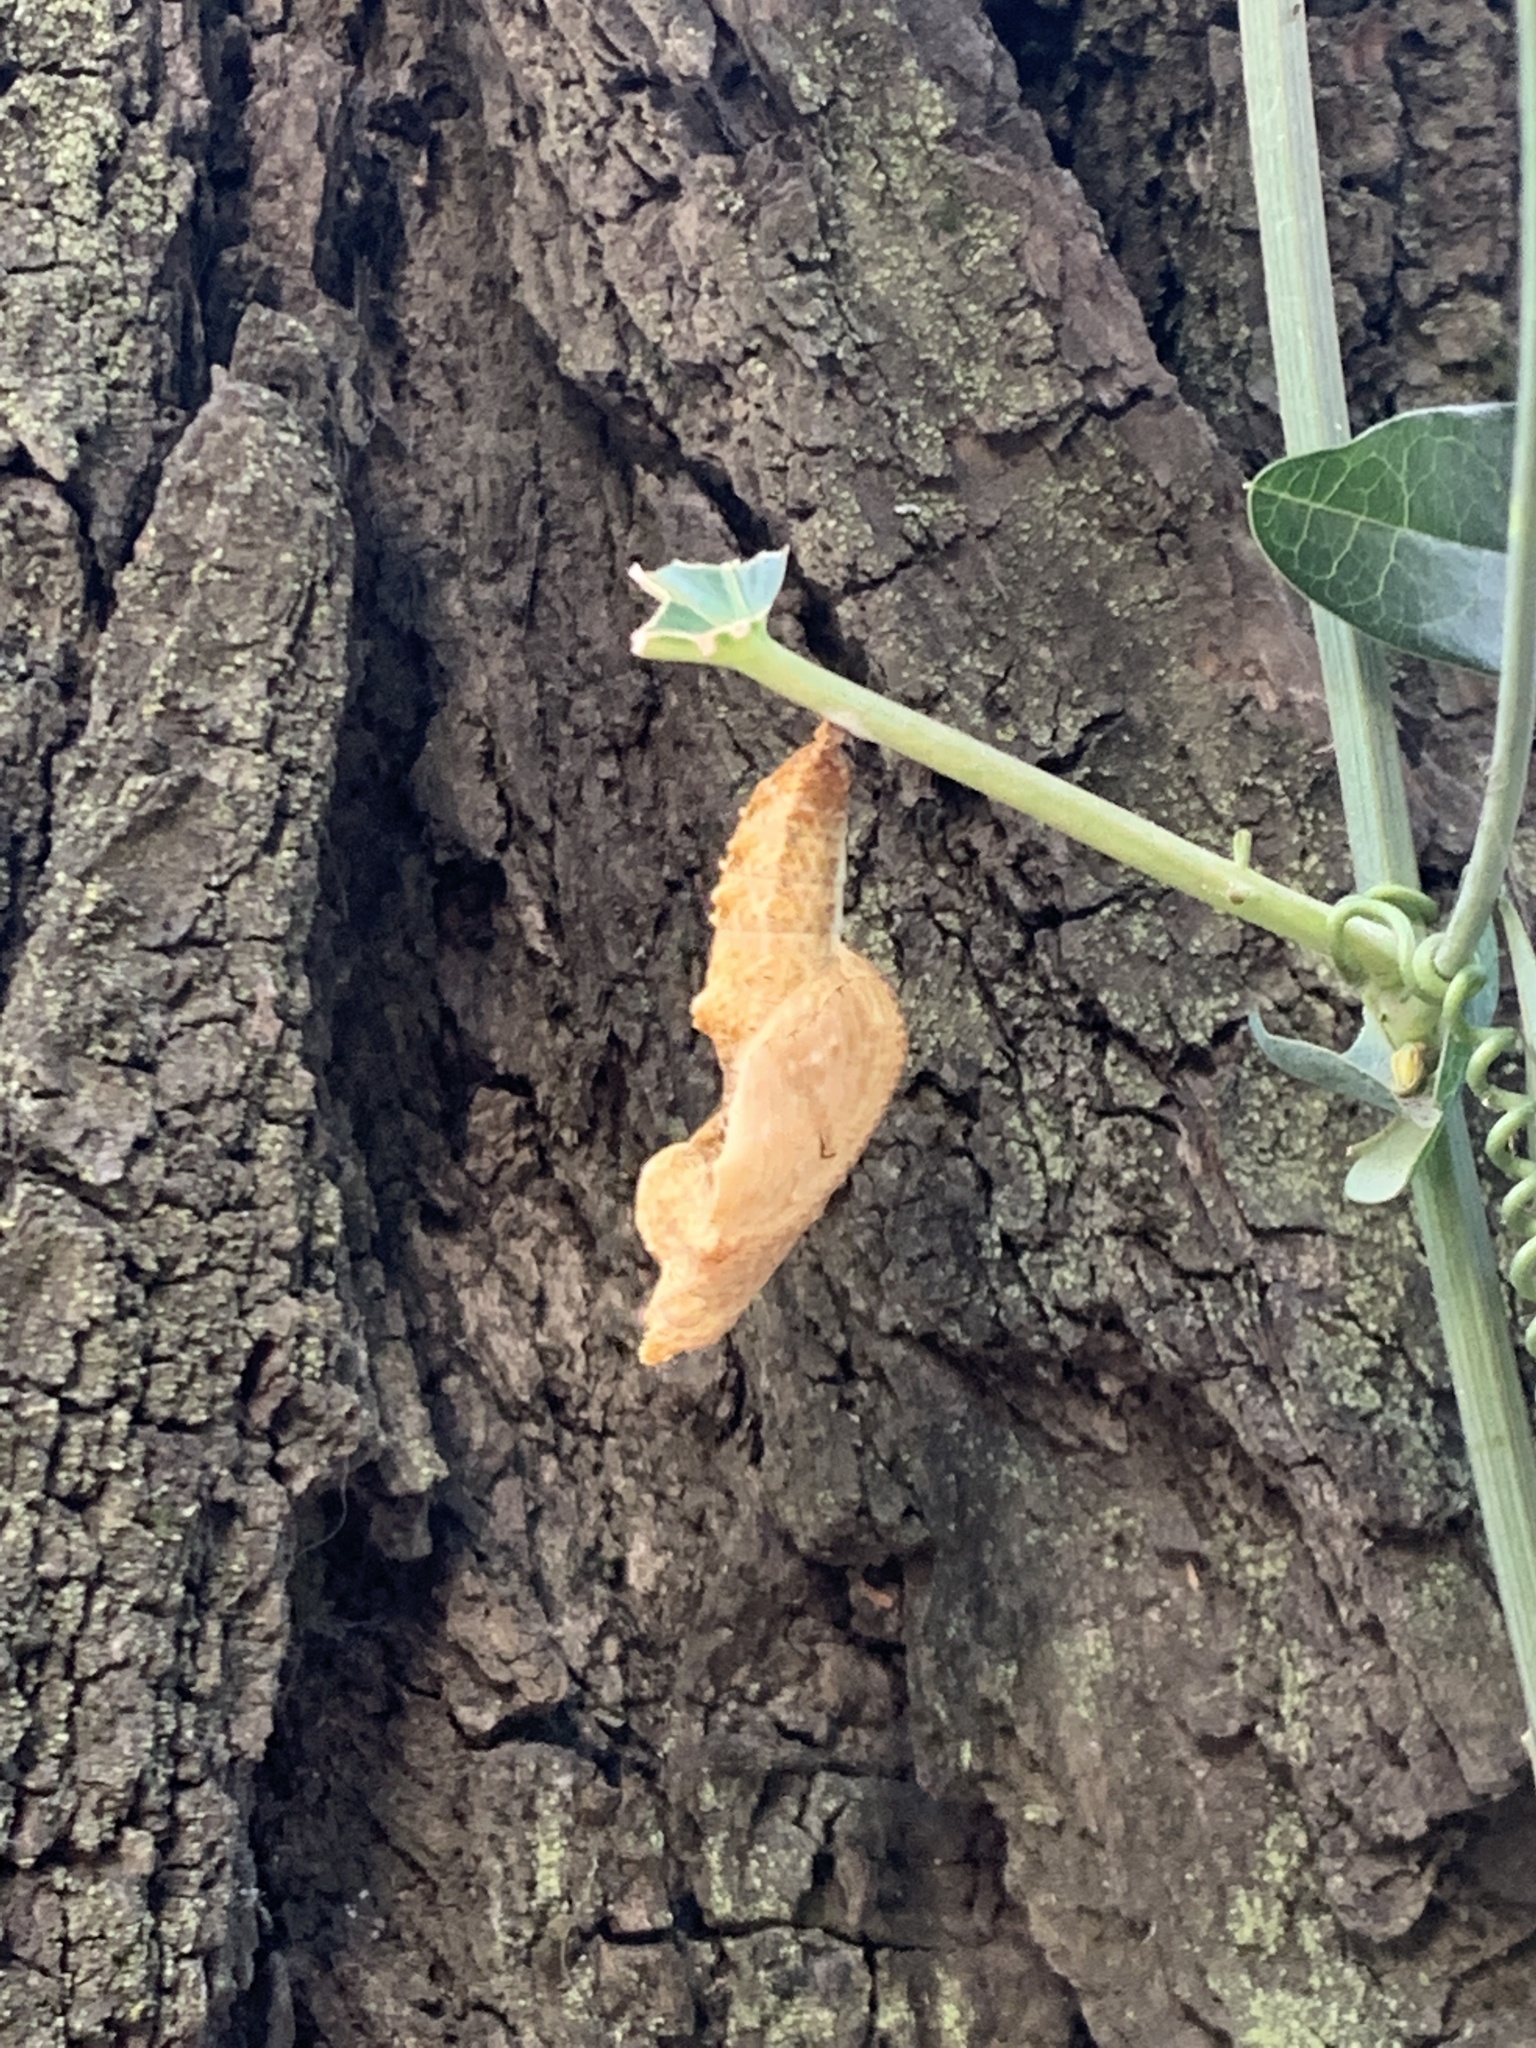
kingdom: Animalia
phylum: Arthropoda
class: Insecta
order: Lepidoptera
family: Nymphalidae
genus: Dione
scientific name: Dione vanillae
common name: Gulf fritillary
